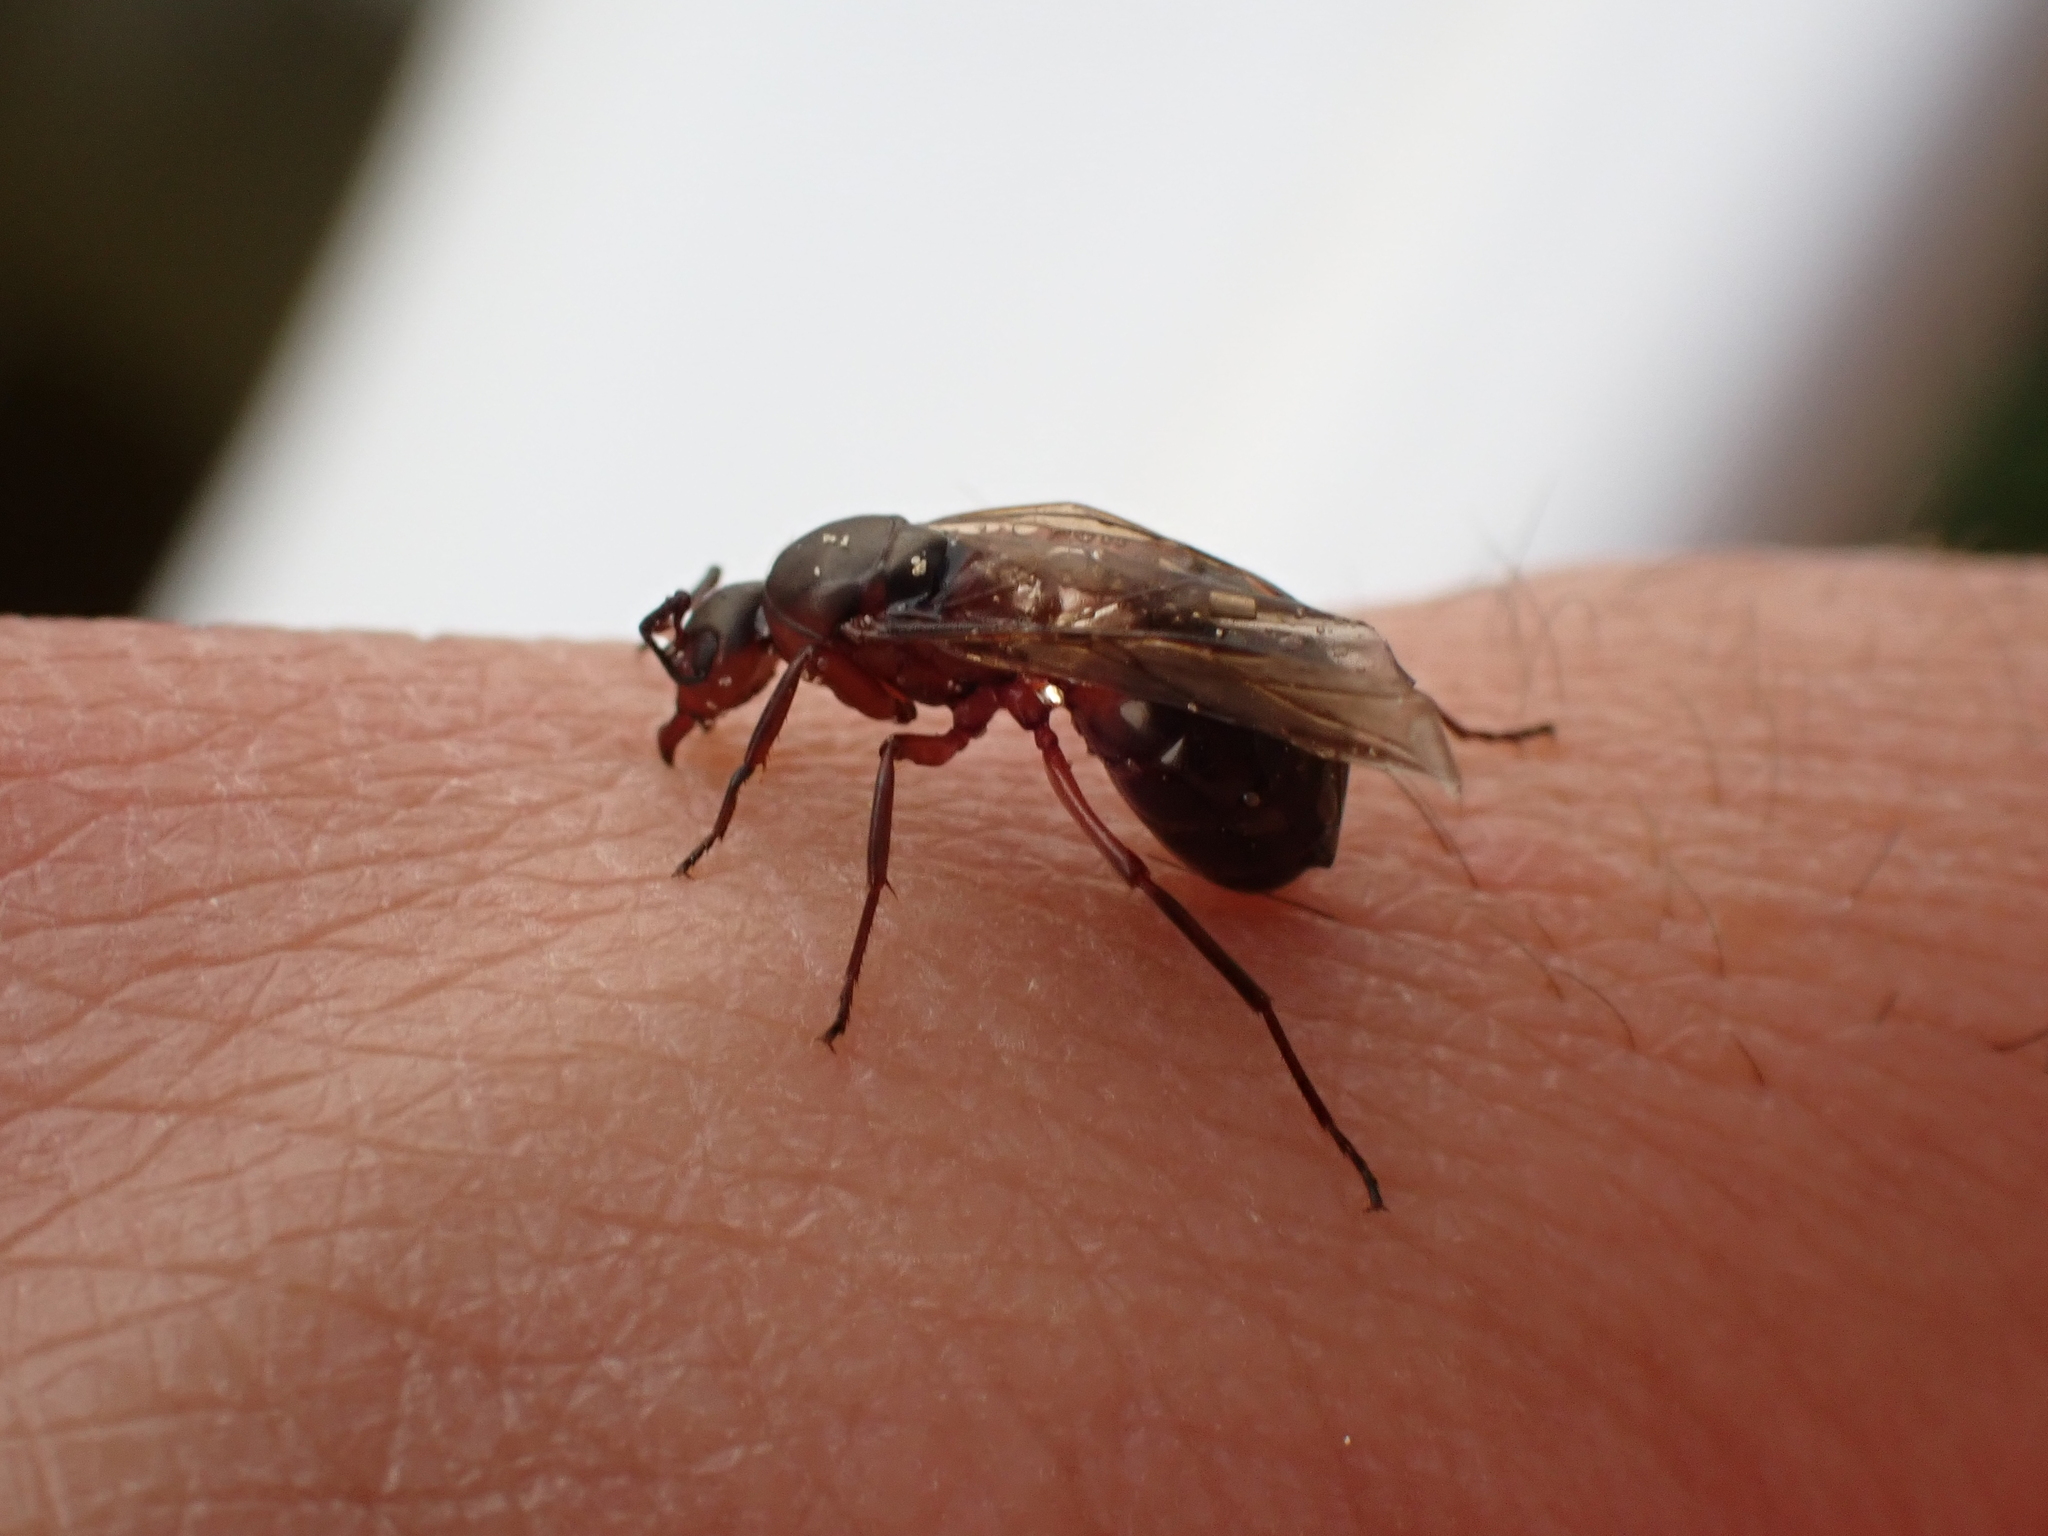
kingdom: Animalia
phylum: Arthropoda
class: Insecta
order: Hymenoptera
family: Formicidae
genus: Formica
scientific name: Formica
